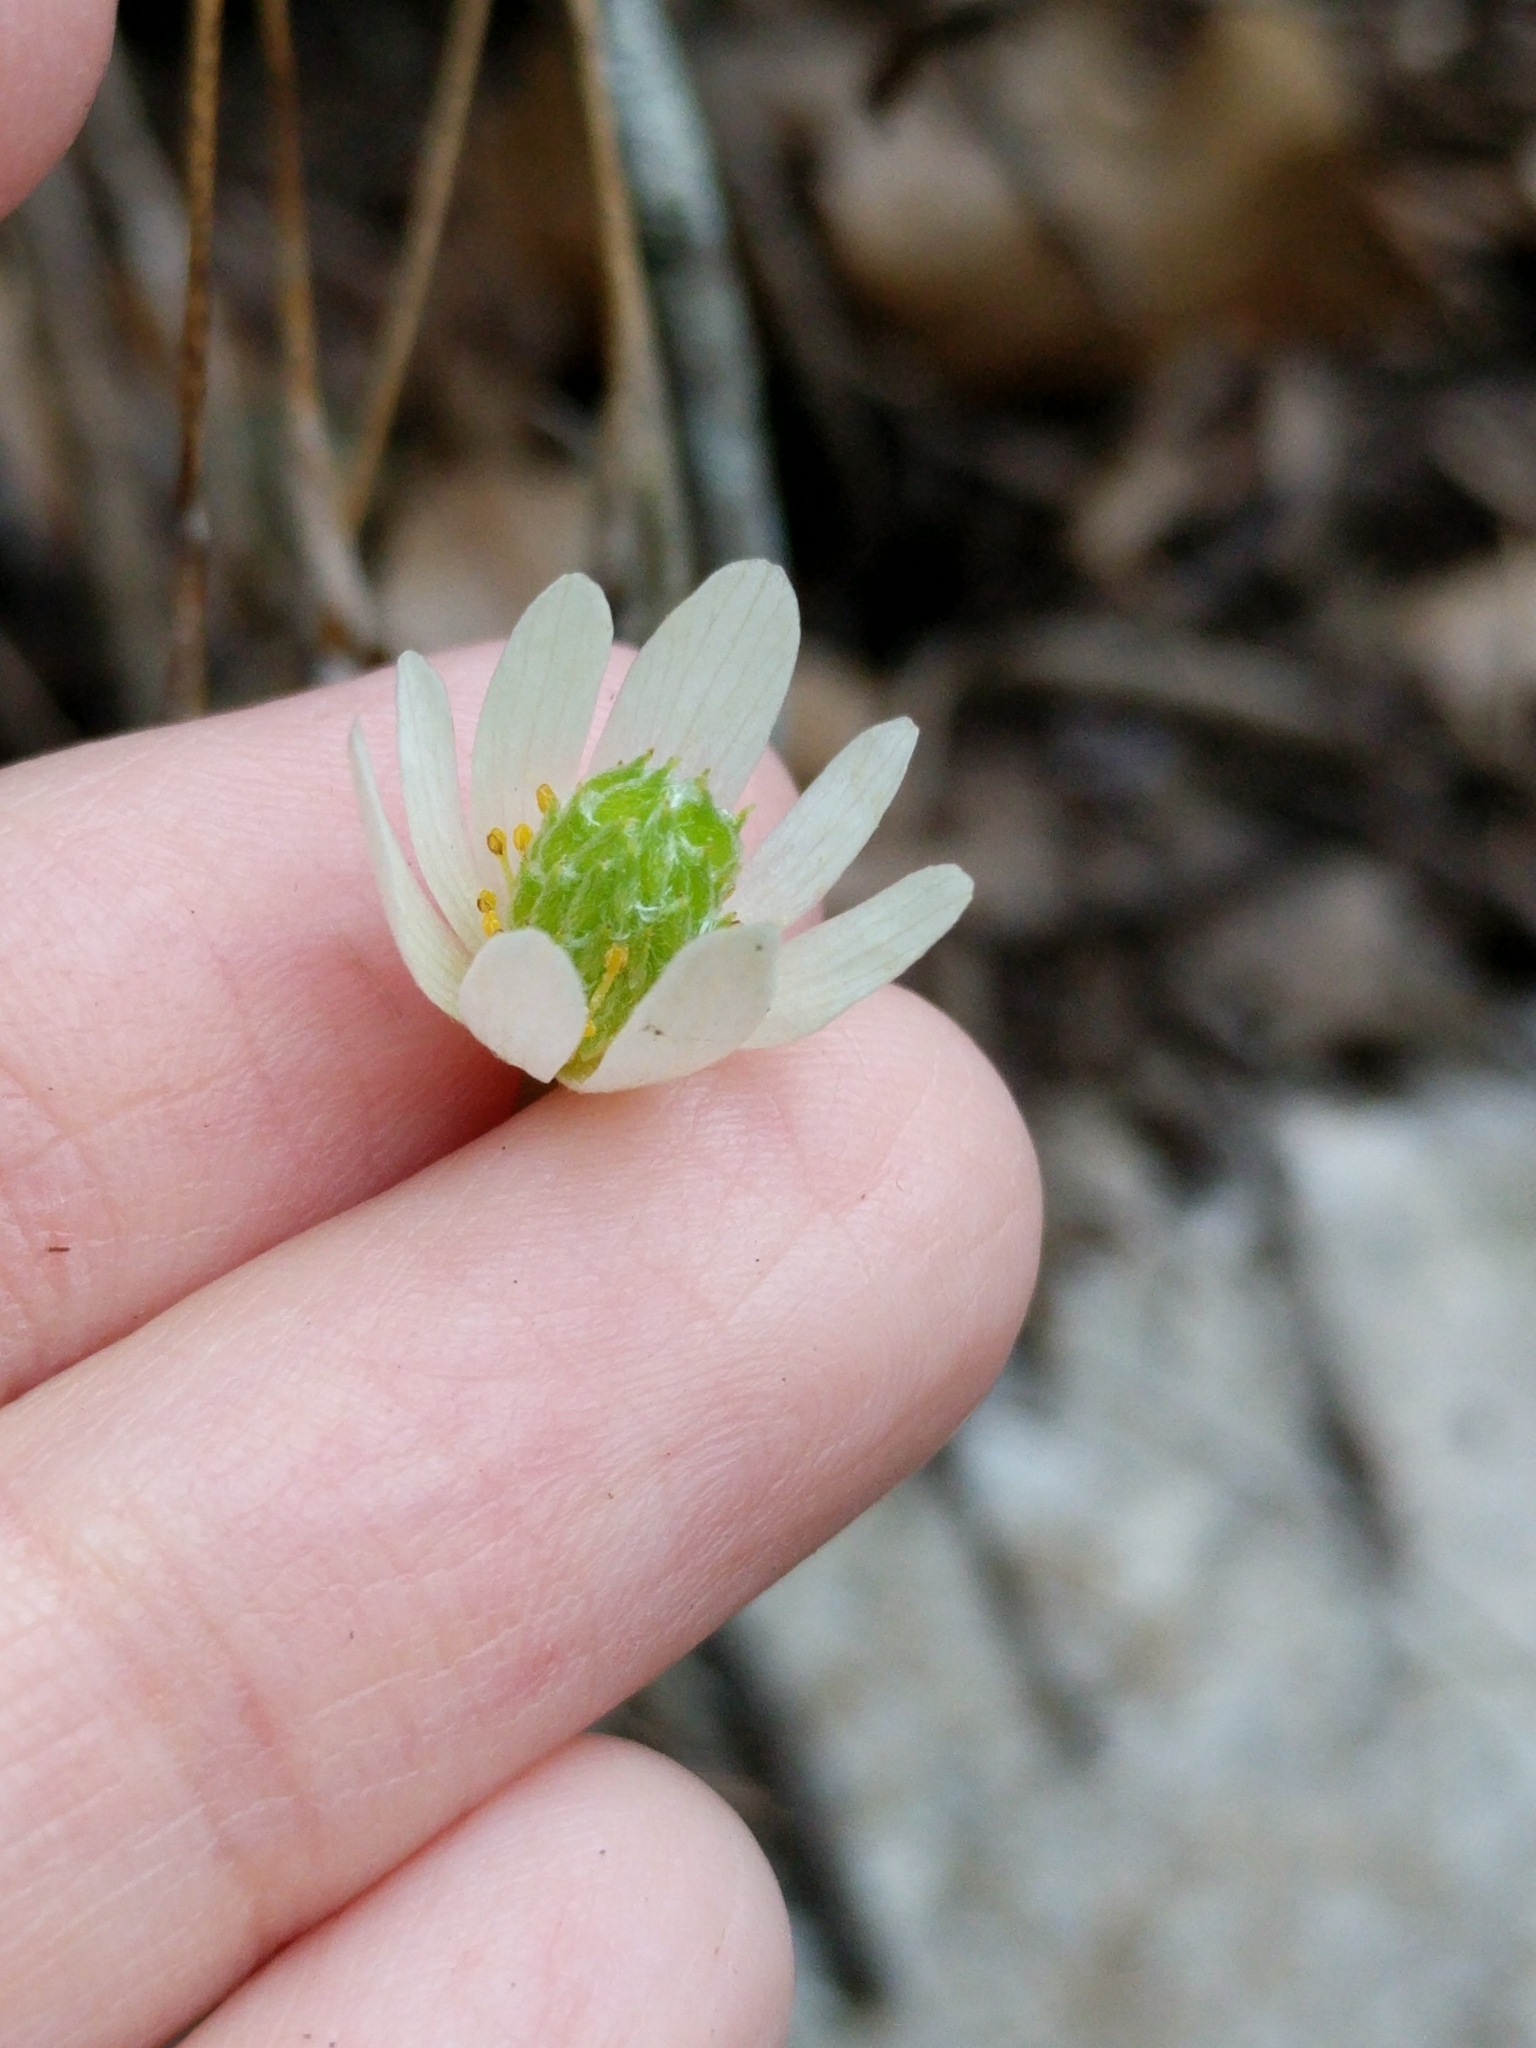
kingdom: Plantae
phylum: Tracheophyta
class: Magnoliopsida
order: Ranunculales
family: Ranunculaceae
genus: Anemone
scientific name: Anemone edwardsiana
